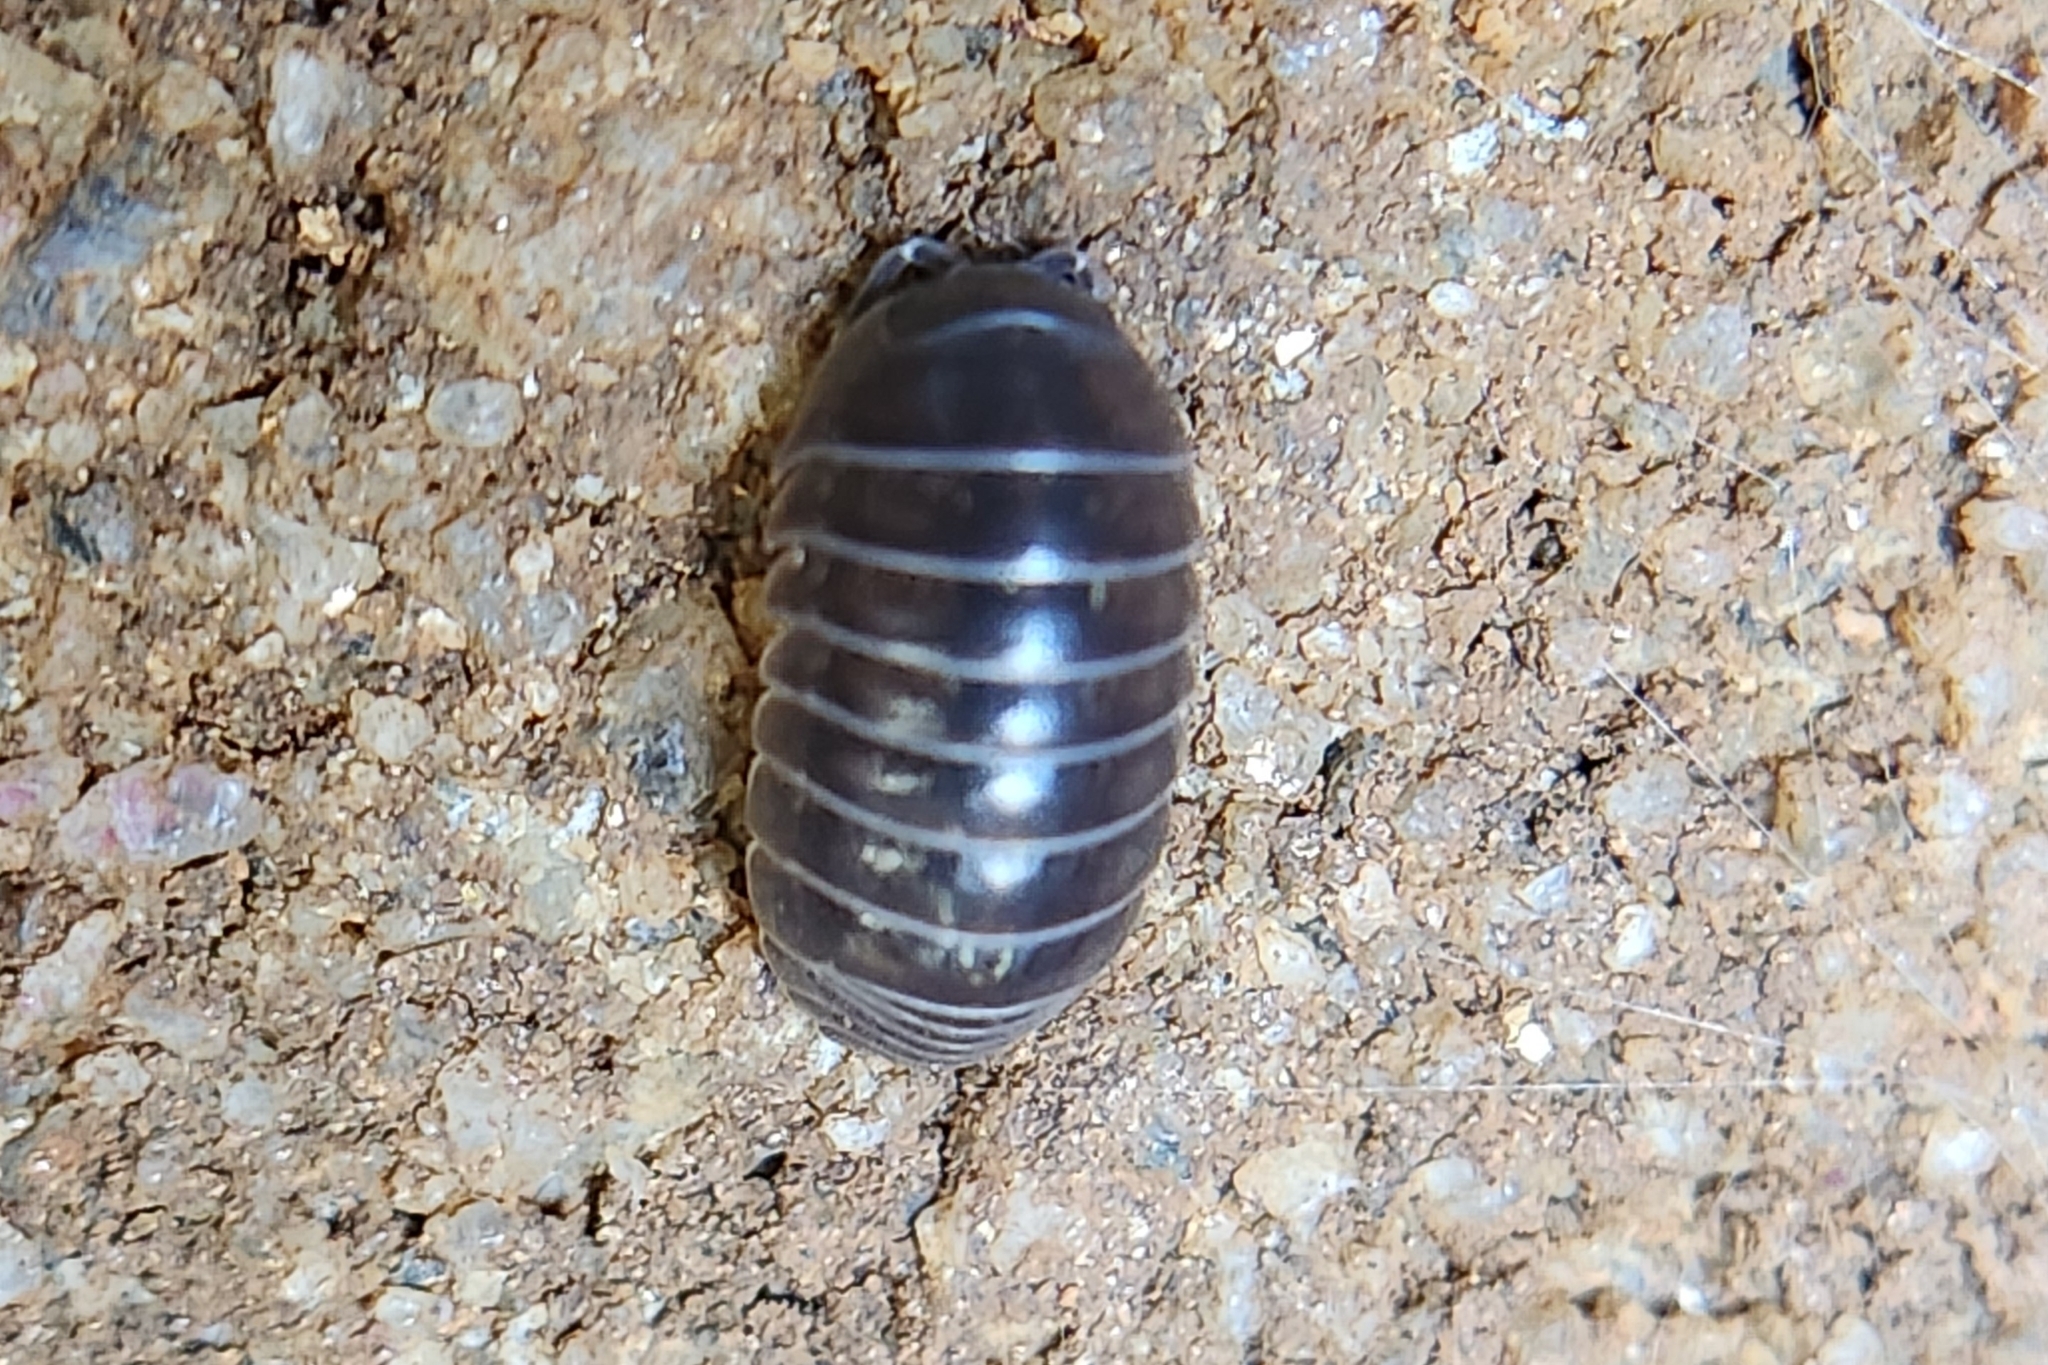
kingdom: Animalia
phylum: Arthropoda
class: Malacostraca
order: Isopoda
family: Armadillidiidae
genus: Armadillidium
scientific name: Armadillidium vulgare
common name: Common pill woodlouse
